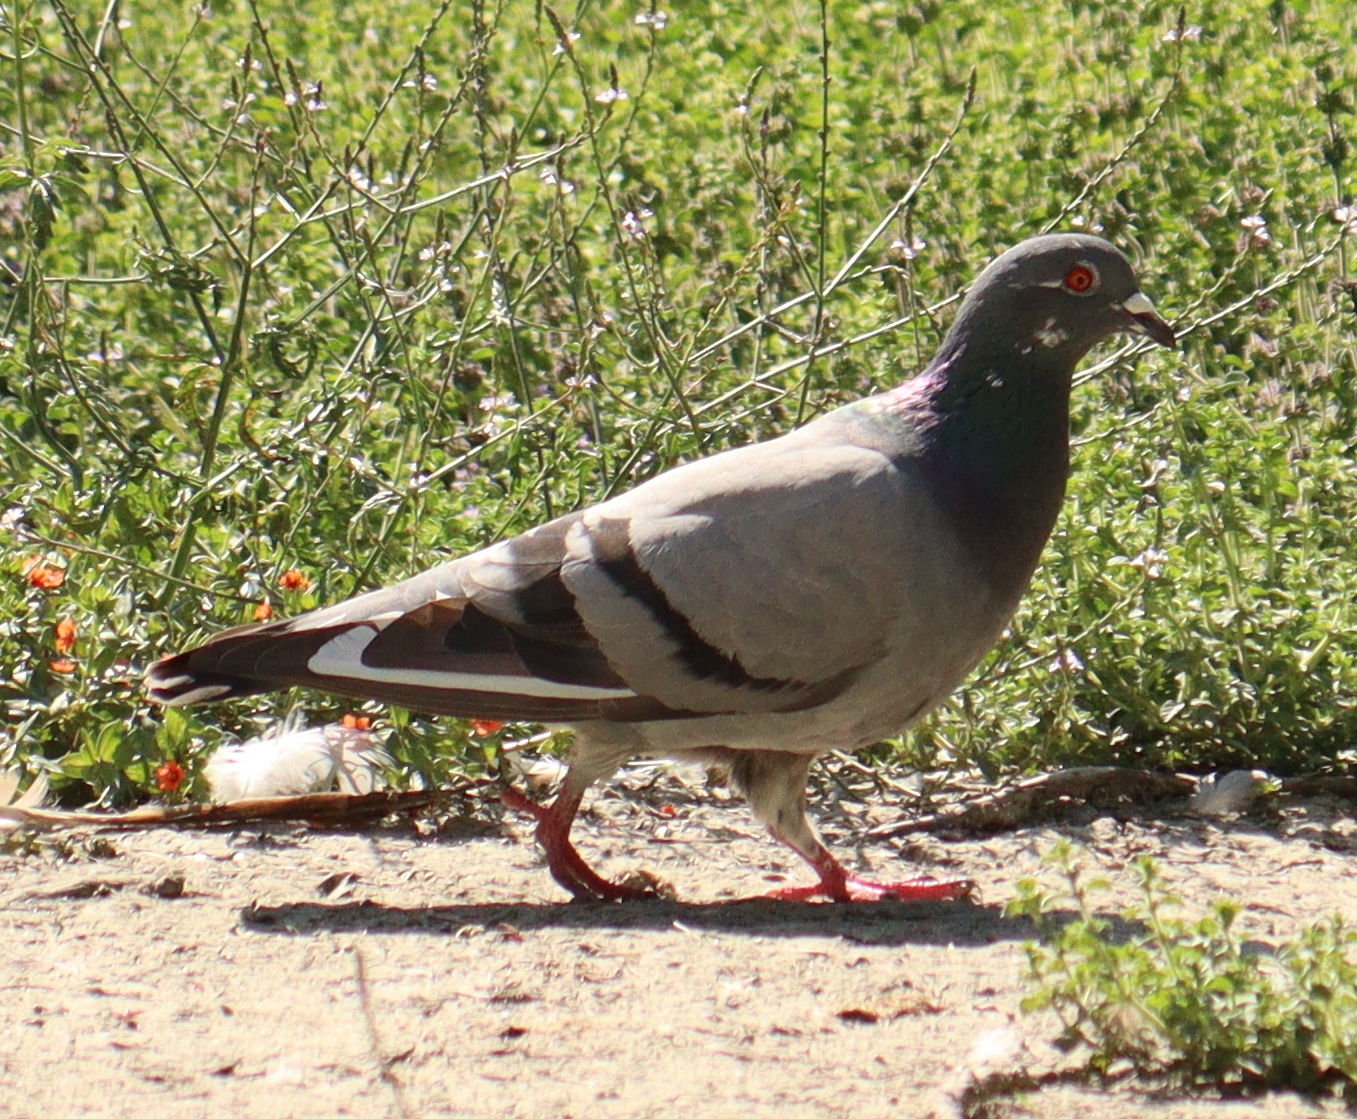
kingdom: Animalia
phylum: Chordata
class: Aves
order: Columbiformes
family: Columbidae
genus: Columba
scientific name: Columba livia
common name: Rock pigeon
